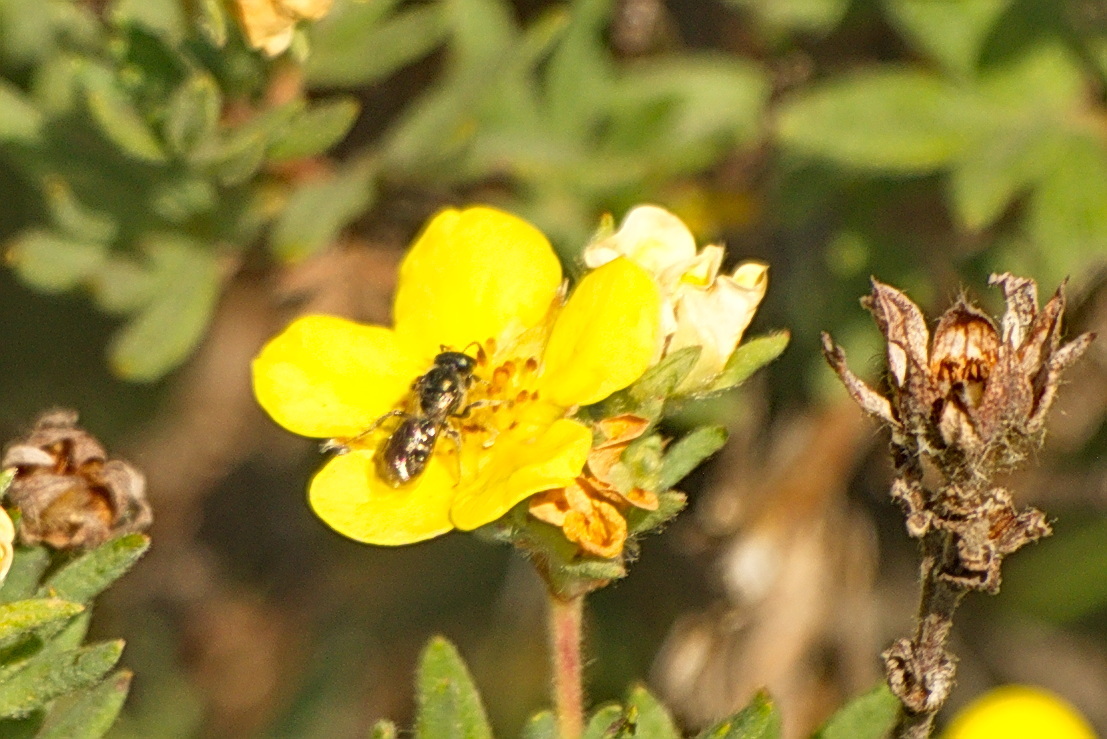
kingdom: Animalia
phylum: Arthropoda
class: Insecta
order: Hymenoptera
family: Halictidae
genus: Dialictus
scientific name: Dialictus
